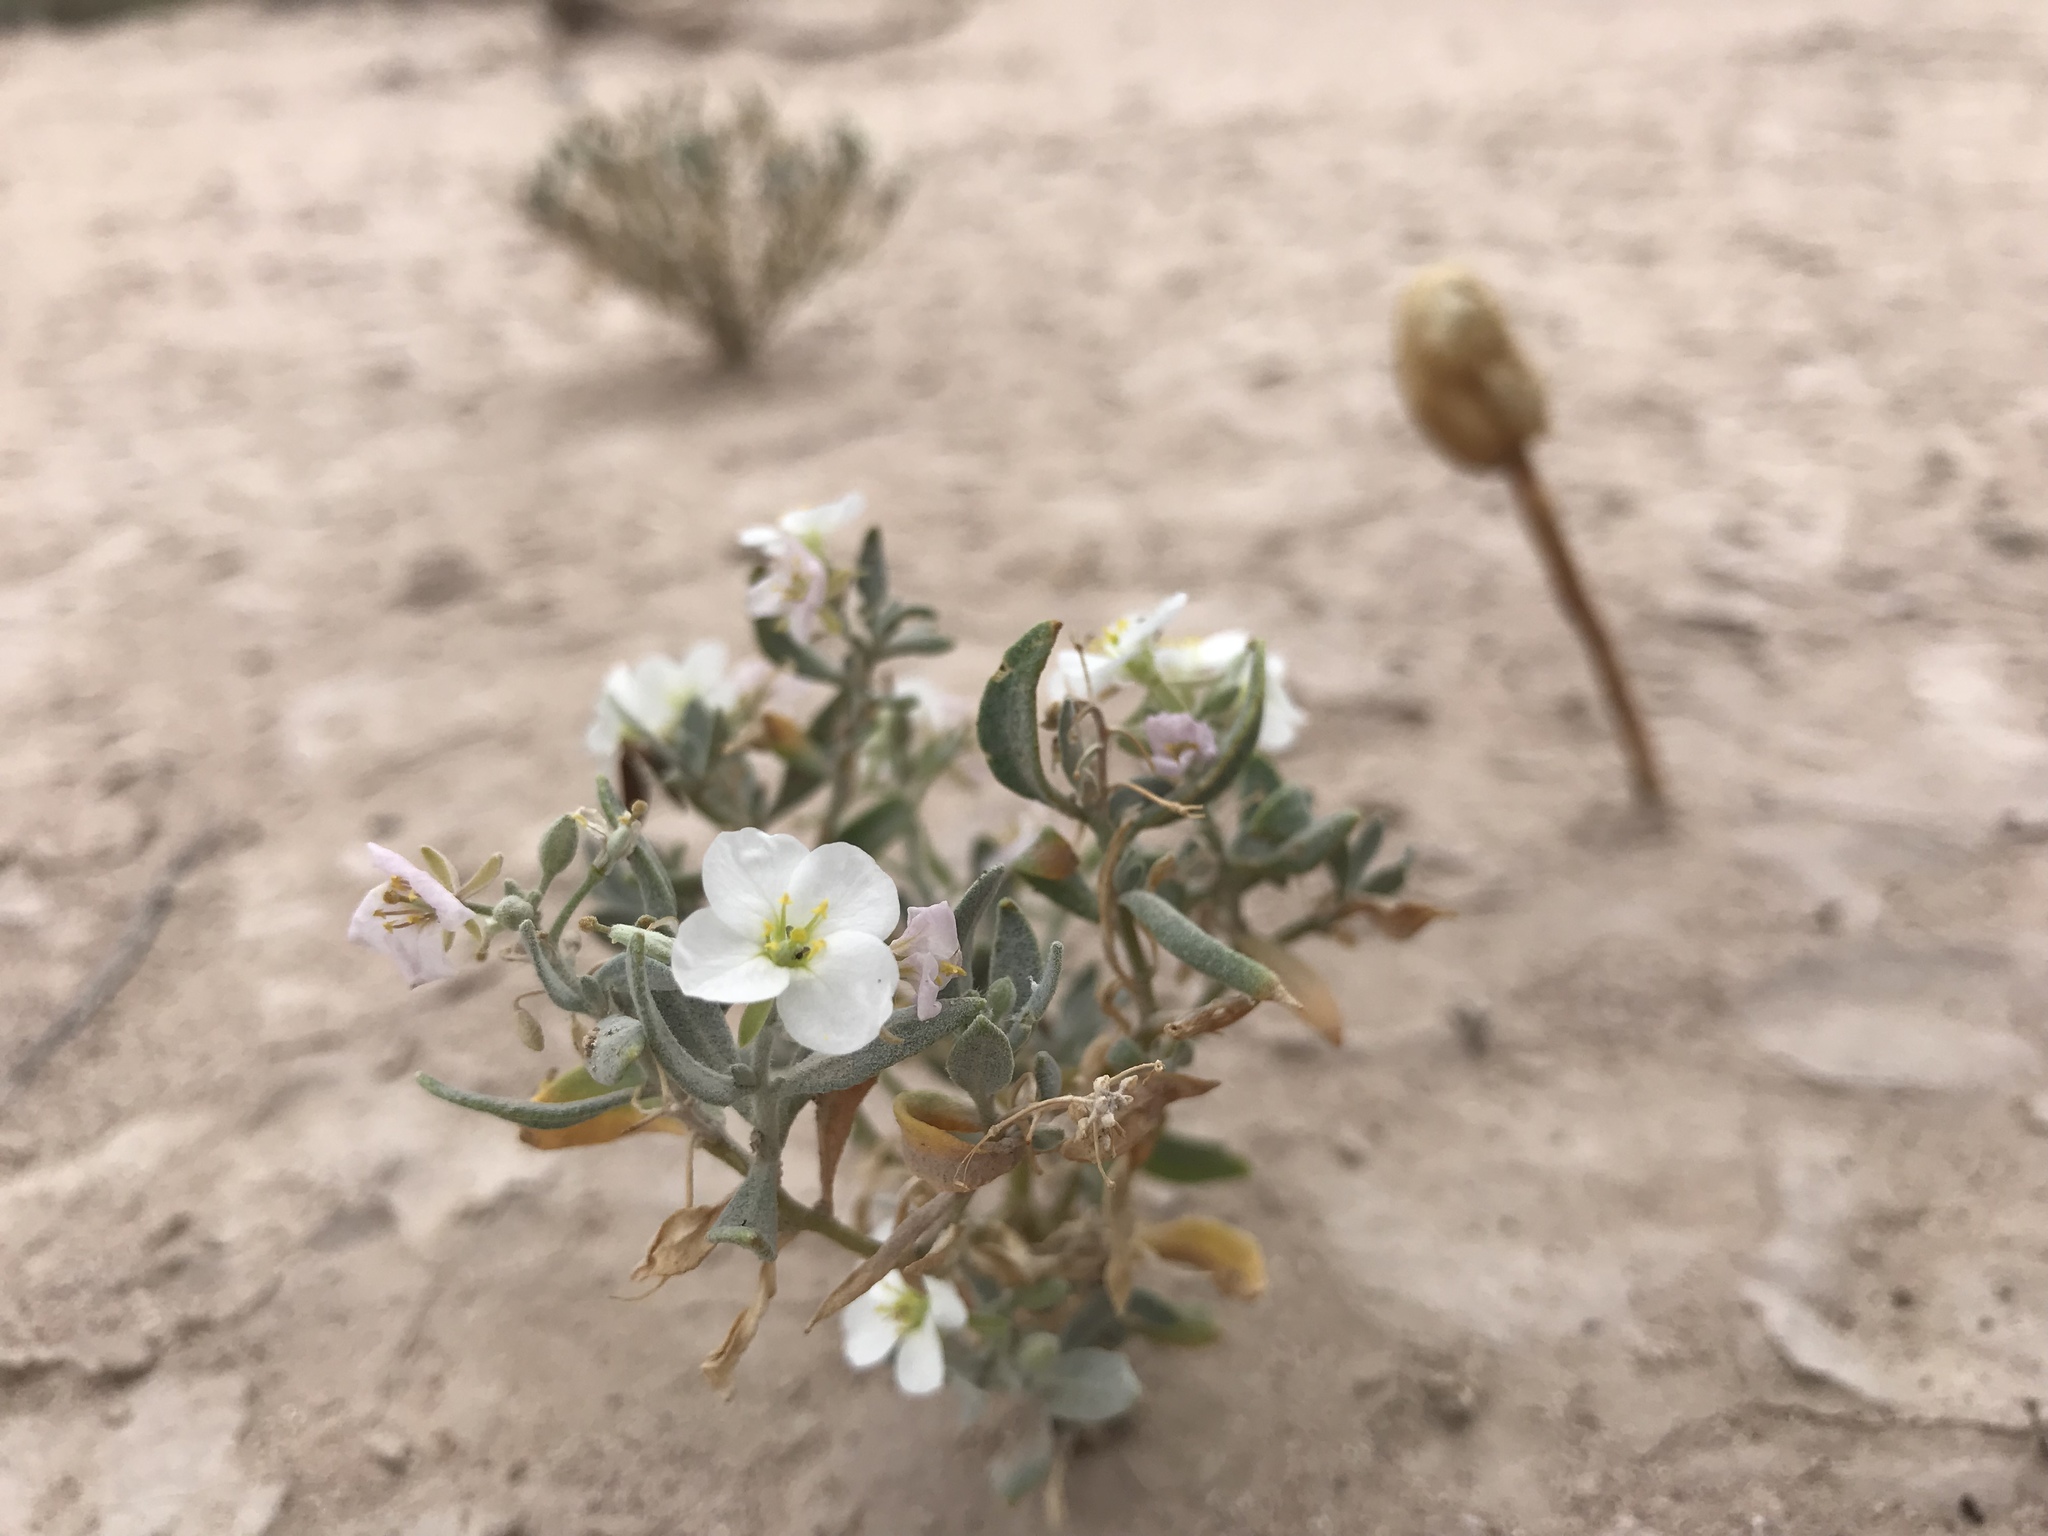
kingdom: Plantae
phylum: Tracheophyta
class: Magnoliopsida
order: Brassicales
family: Brassicaceae
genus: Nerisyrenia
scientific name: Nerisyrenia camporum
